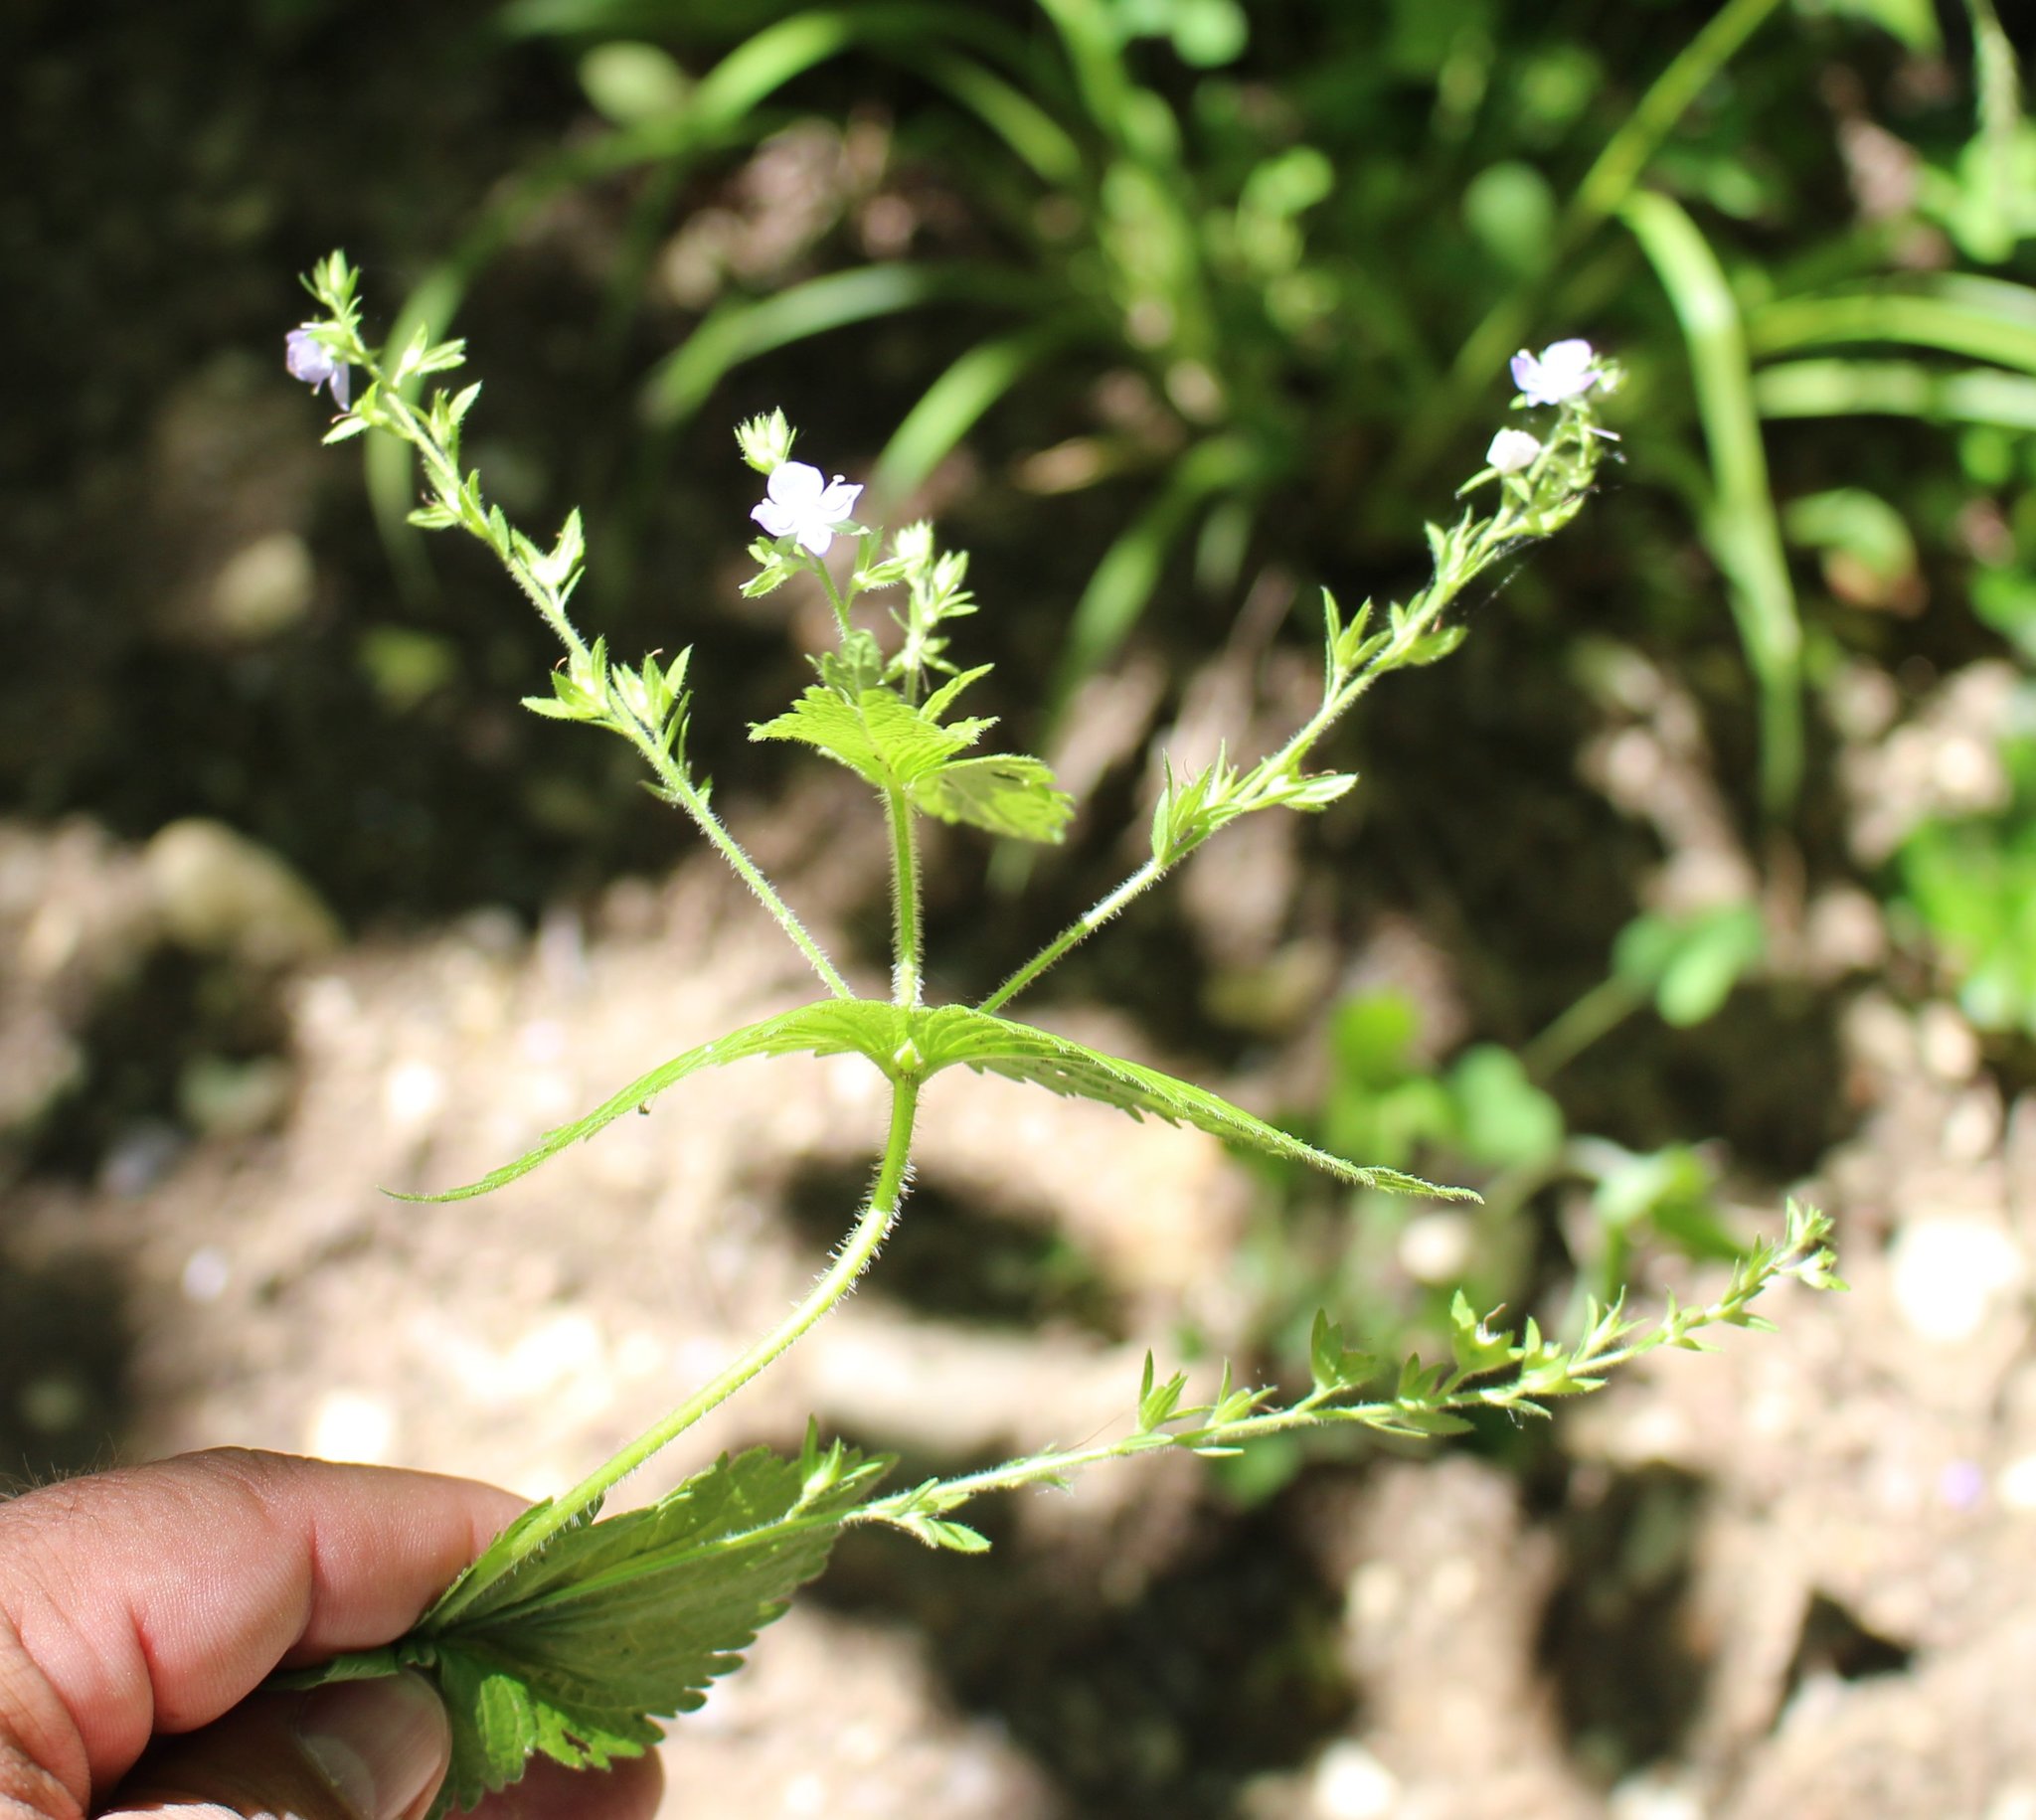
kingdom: Plantae
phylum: Tracheophyta
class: Magnoliopsida
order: Lamiales
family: Plantaginaceae
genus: Veronica
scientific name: Veronica magna
